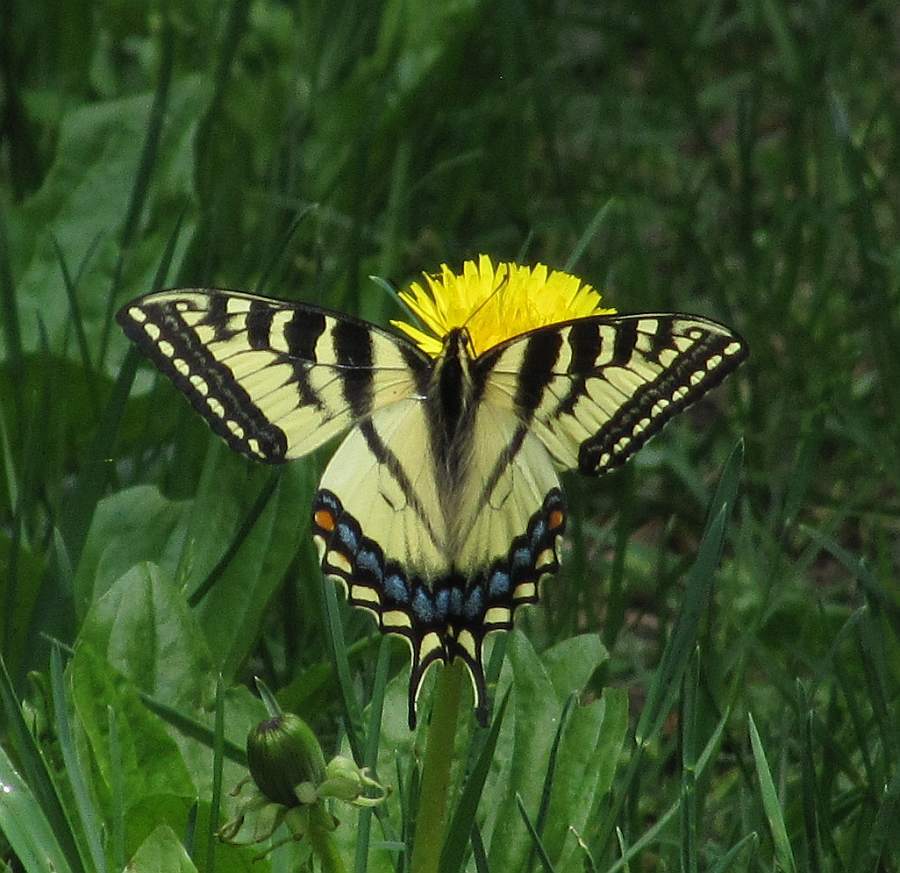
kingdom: Animalia
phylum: Arthropoda
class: Insecta
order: Lepidoptera
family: Papilionidae
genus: Papilio
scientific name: Papilio canadensis
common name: Canadian tiger swallowtail
